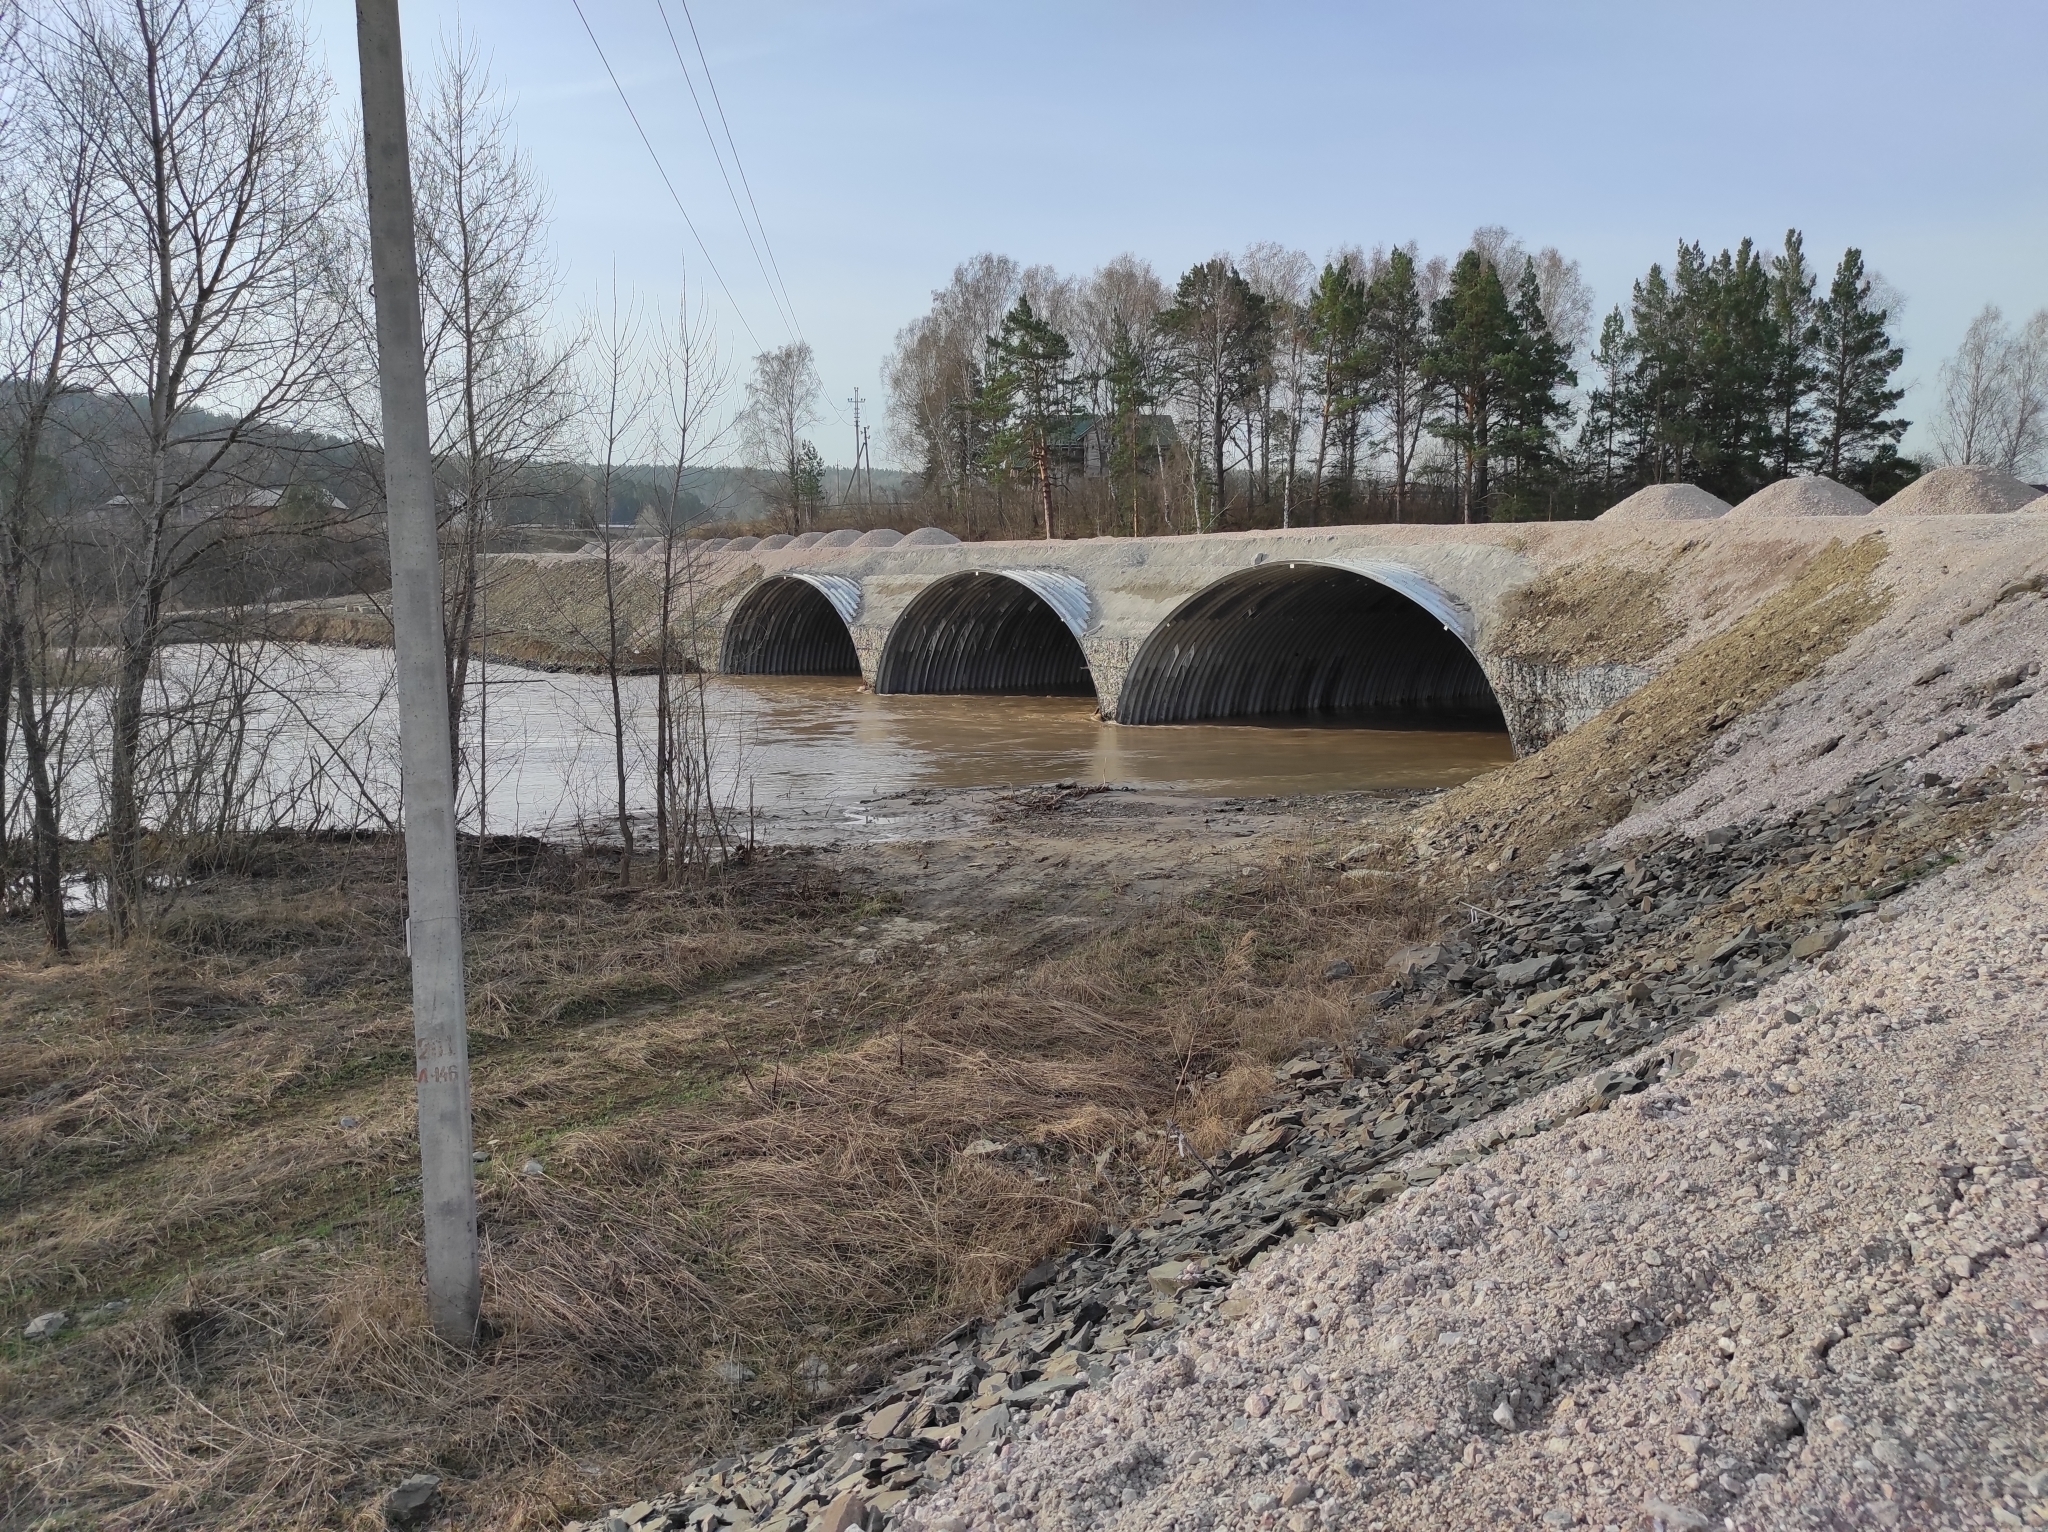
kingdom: Animalia
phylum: Chordata
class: Aves
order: Piciformes
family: Picidae
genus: Jynx
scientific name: Jynx torquilla
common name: Eurasian wryneck
